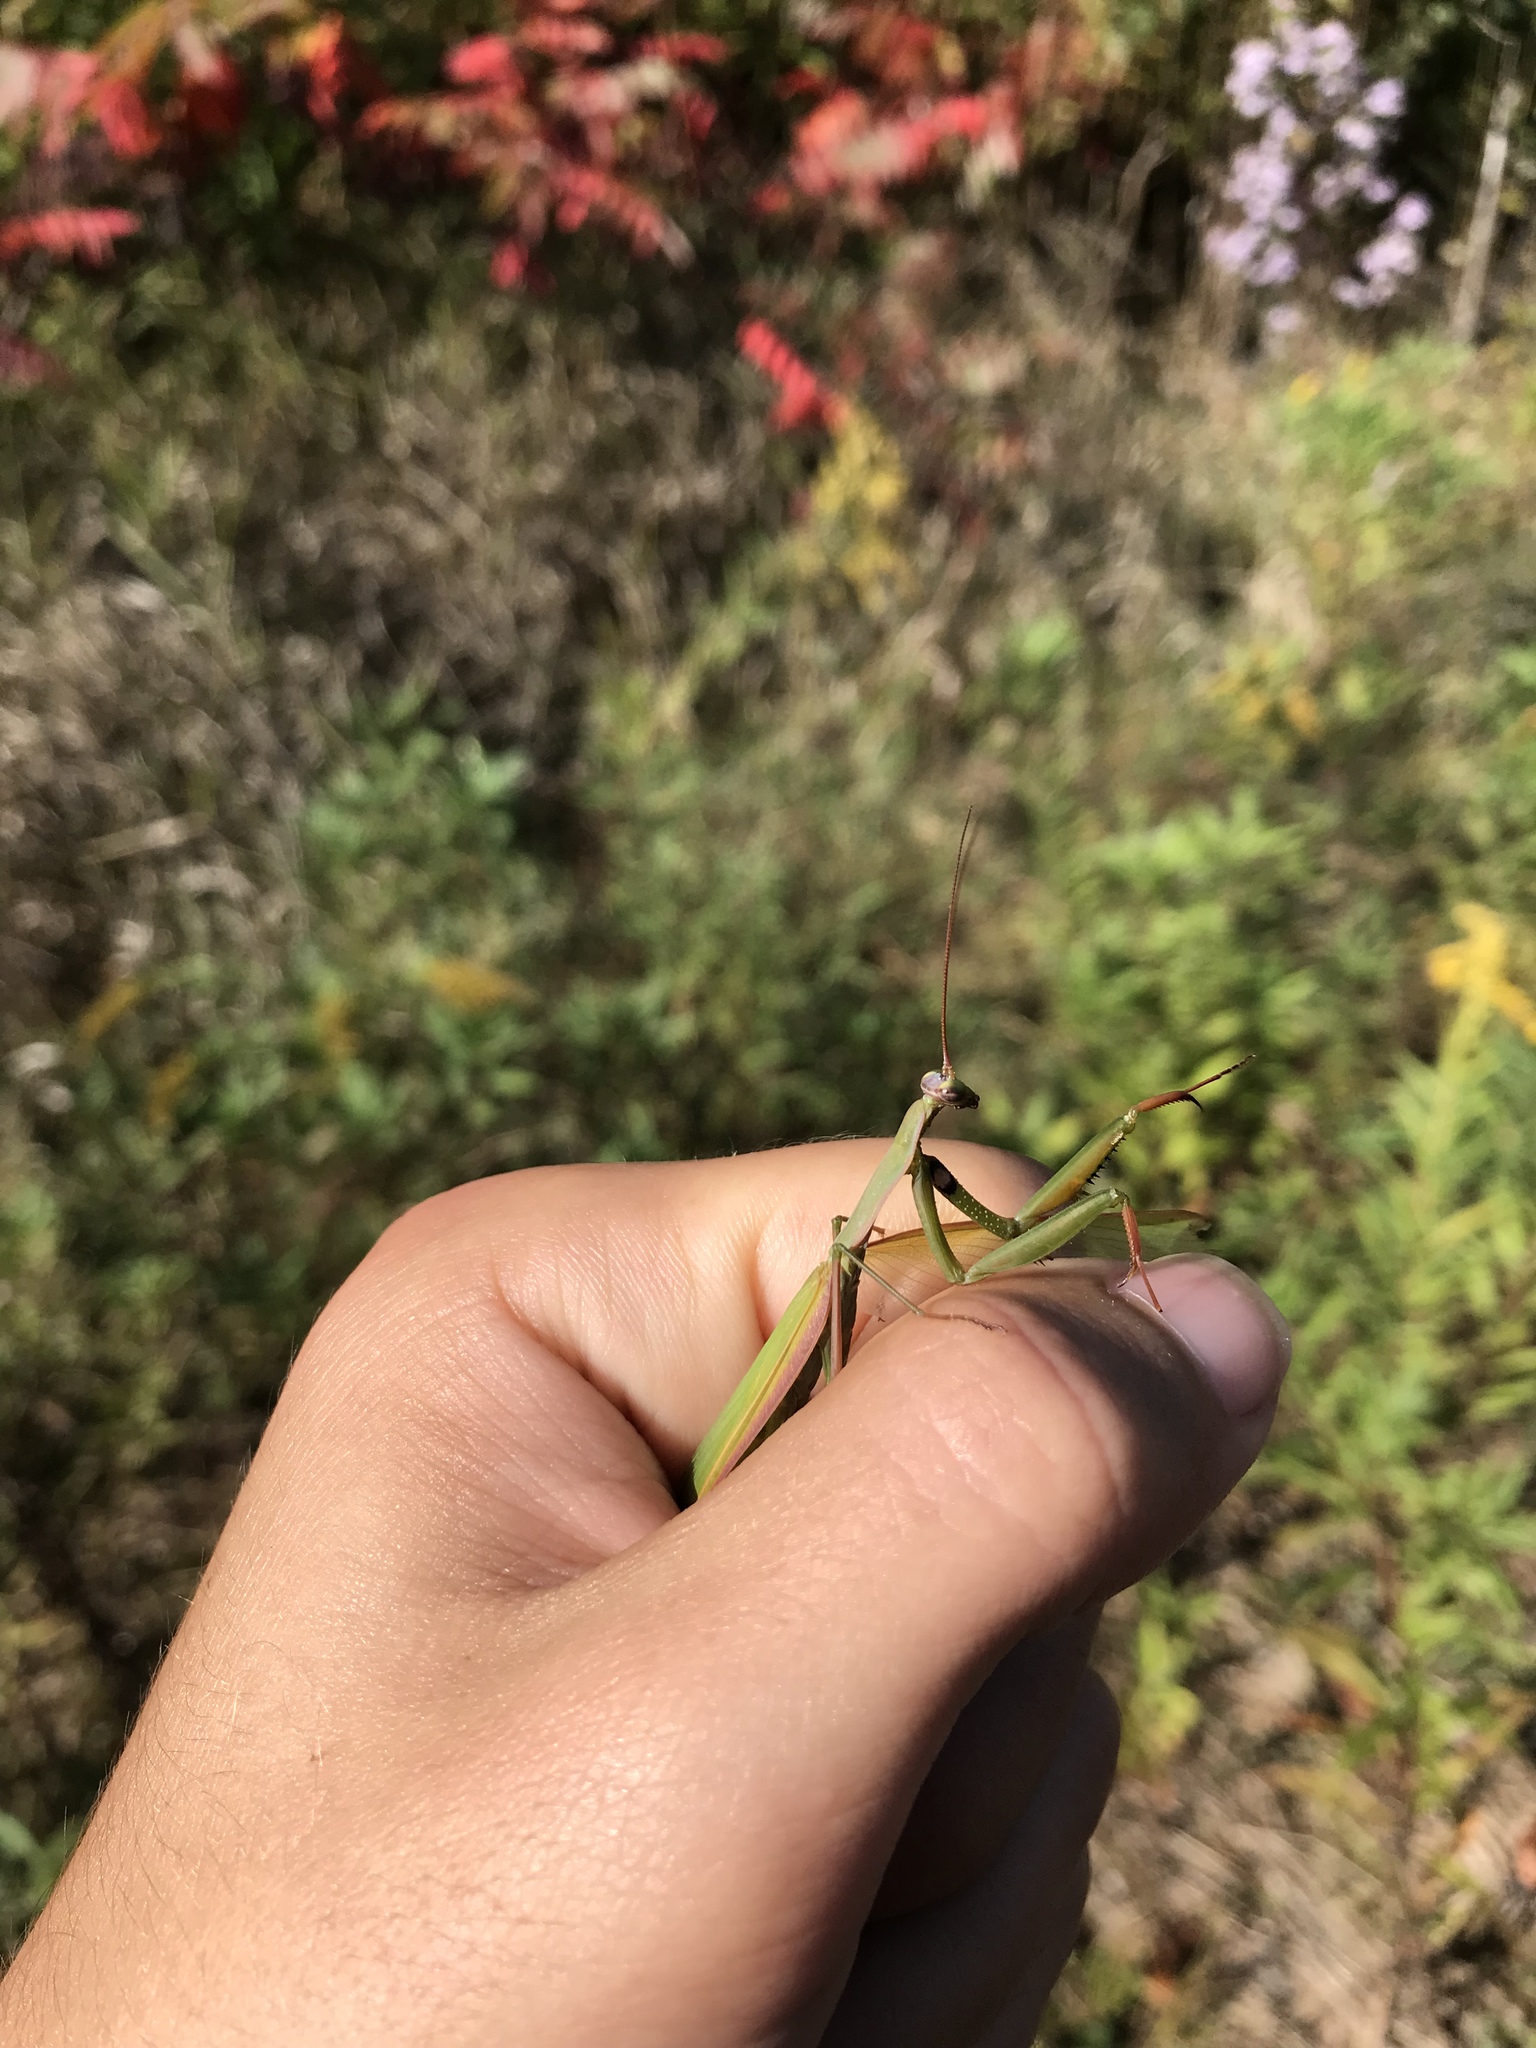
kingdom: Animalia
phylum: Arthropoda
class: Insecta
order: Mantodea
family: Mantidae
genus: Mantis
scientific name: Mantis religiosa
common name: Praying mantis
